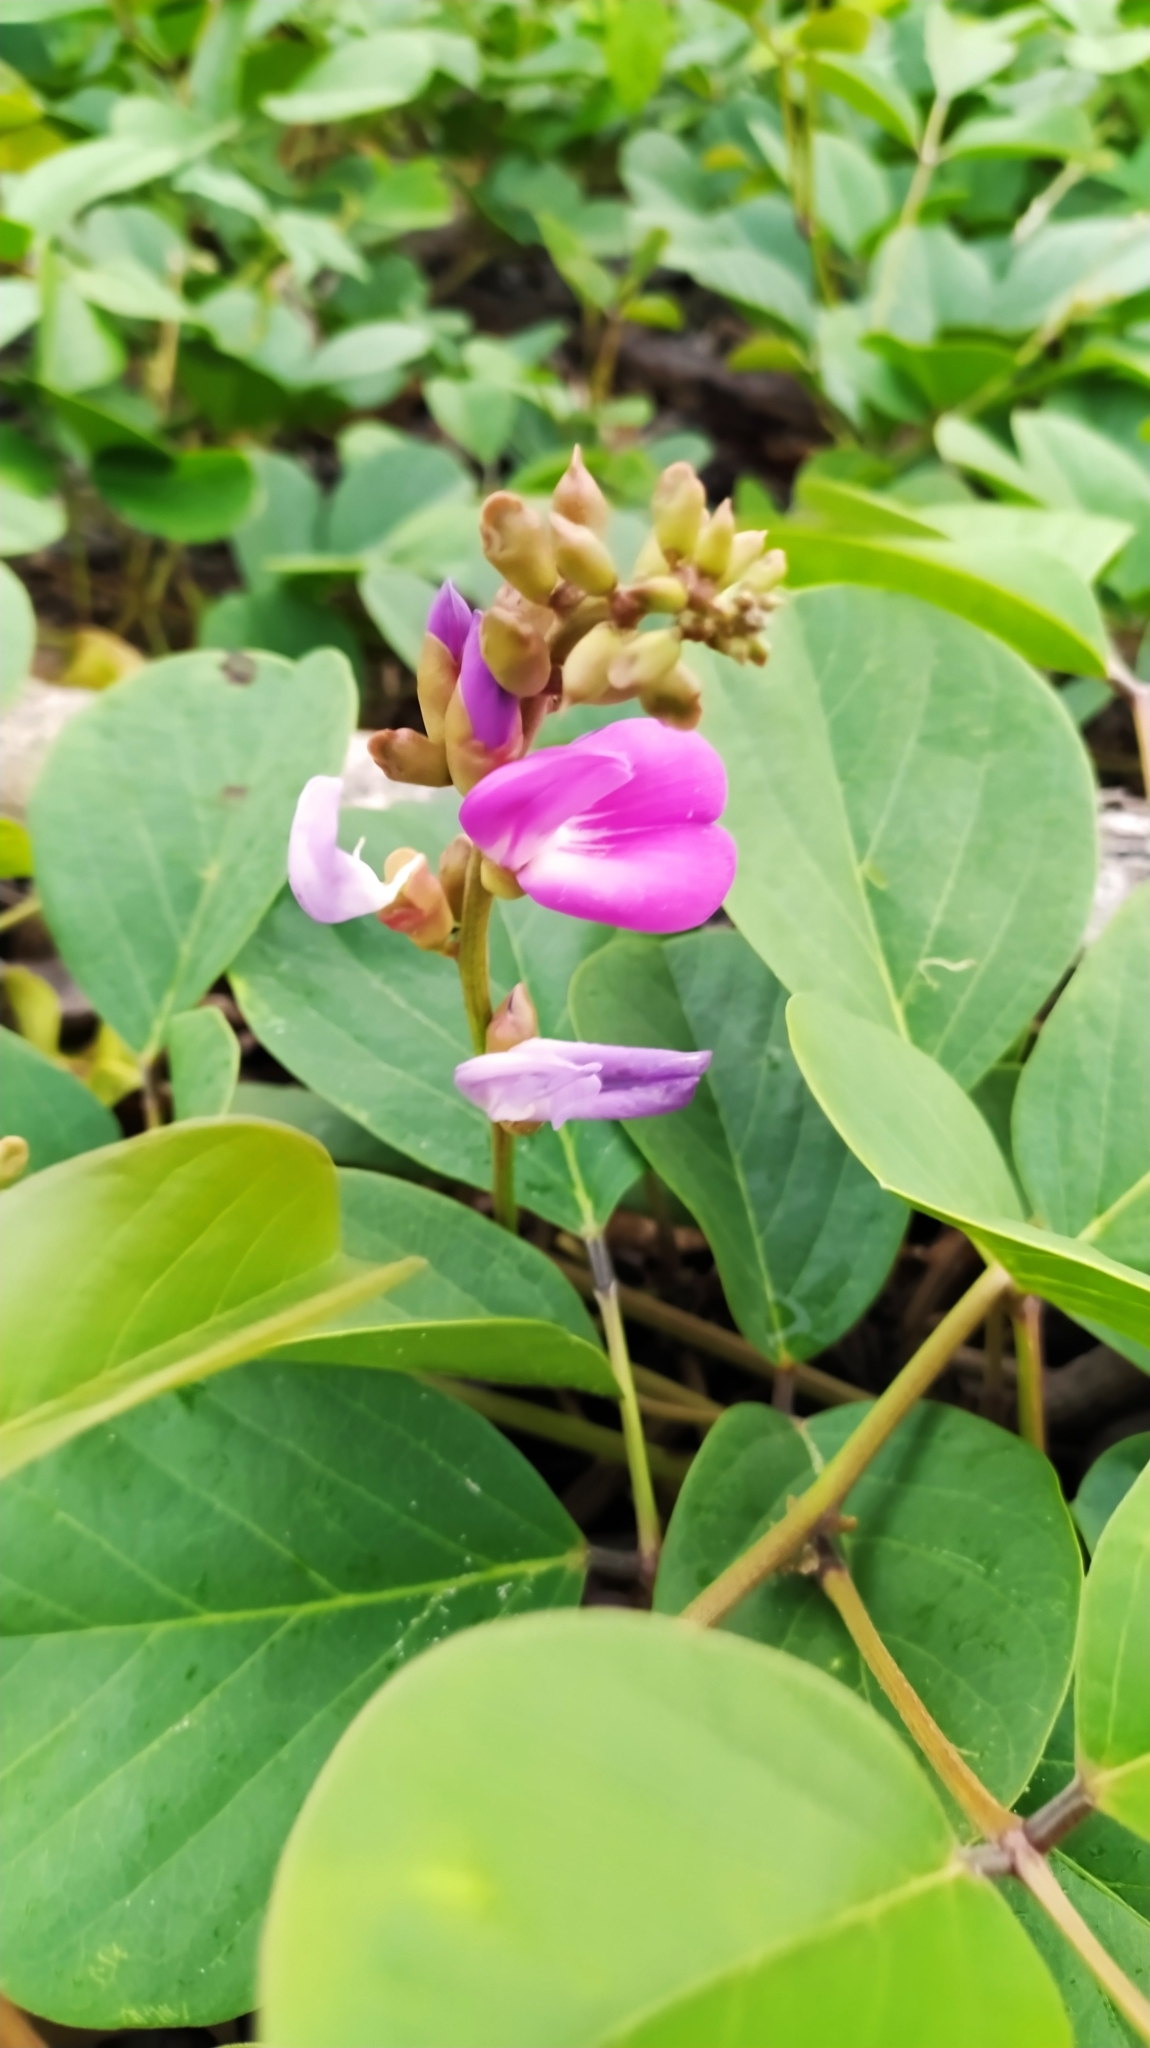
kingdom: Plantae
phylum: Tracheophyta
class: Magnoliopsida
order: Fabales
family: Fabaceae
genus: Canavalia
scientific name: Canavalia rosea
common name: Beach-bean
